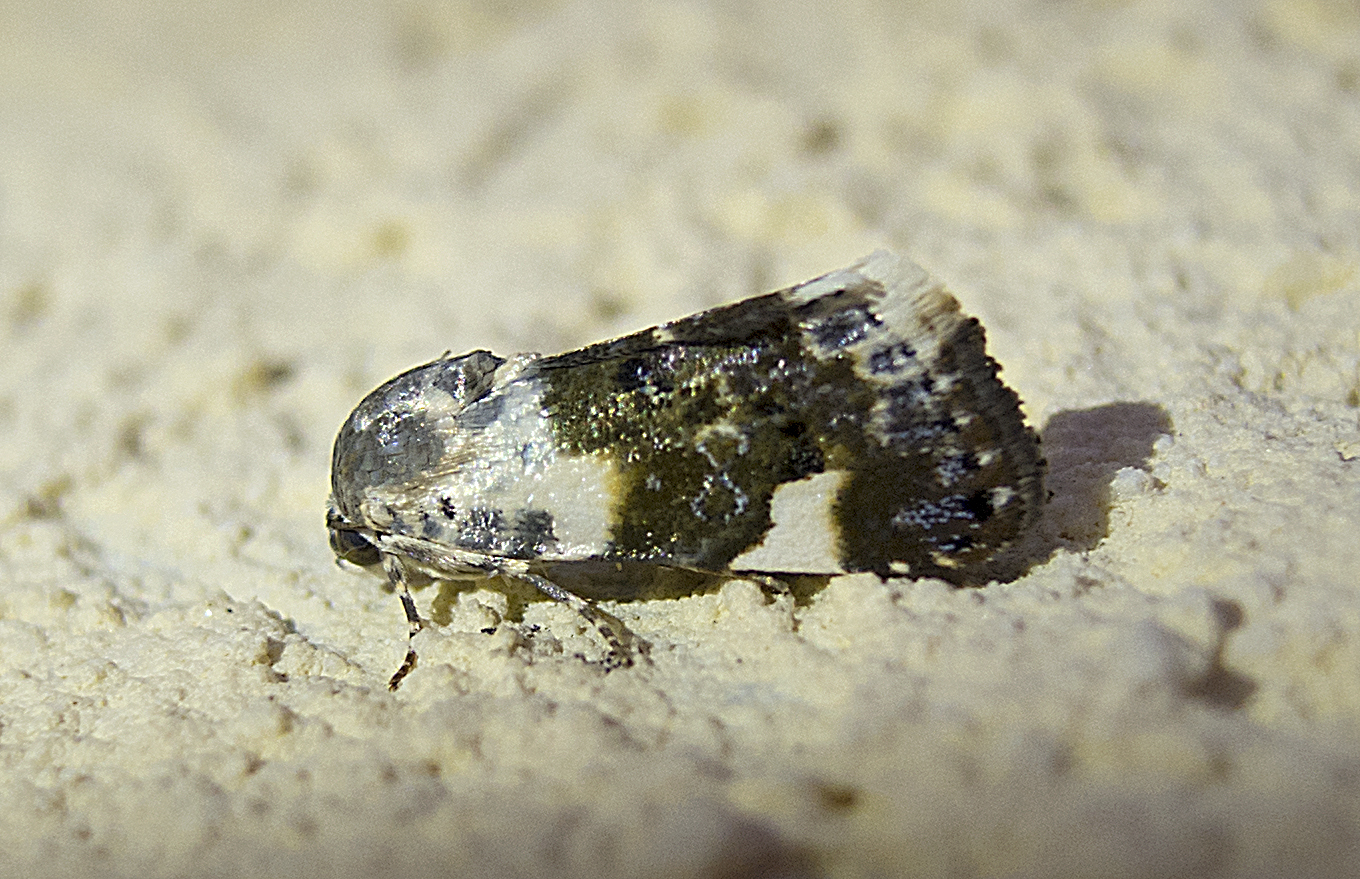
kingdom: Animalia
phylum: Arthropoda
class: Insecta
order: Lepidoptera
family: Noctuidae
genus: Acontia
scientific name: Acontia lucida
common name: Pale shoulder
